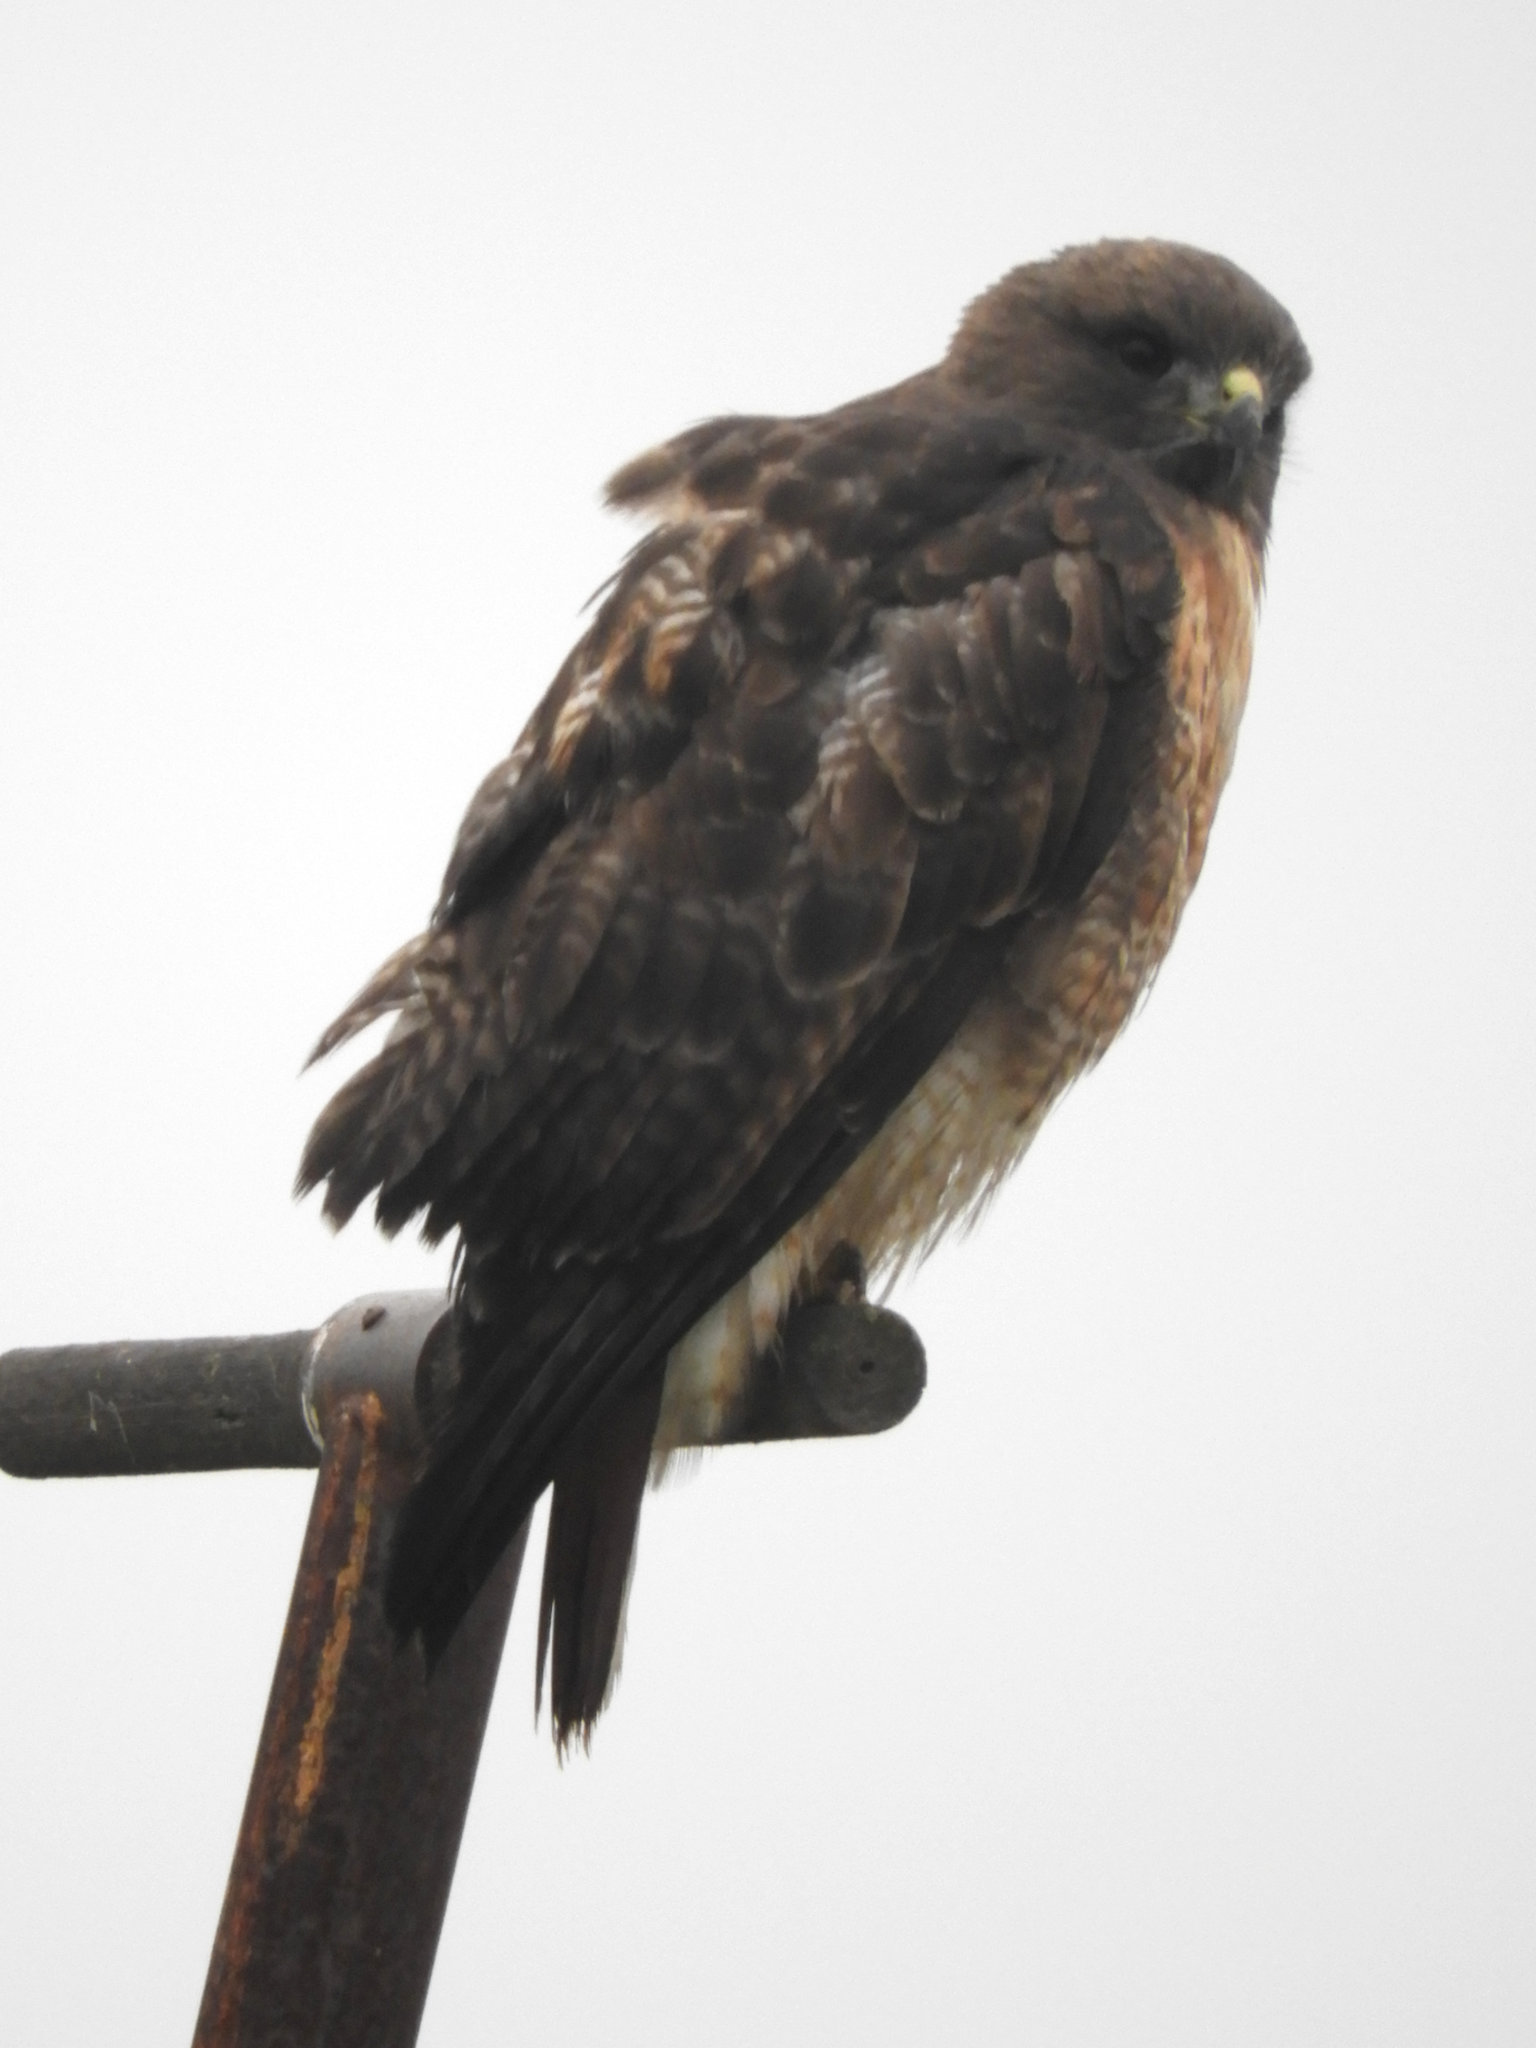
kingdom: Animalia
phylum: Chordata
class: Aves
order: Accipitriformes
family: Accipitridae
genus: Buteo
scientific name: Buteo jamaicensis
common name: Red-tailed hawk
